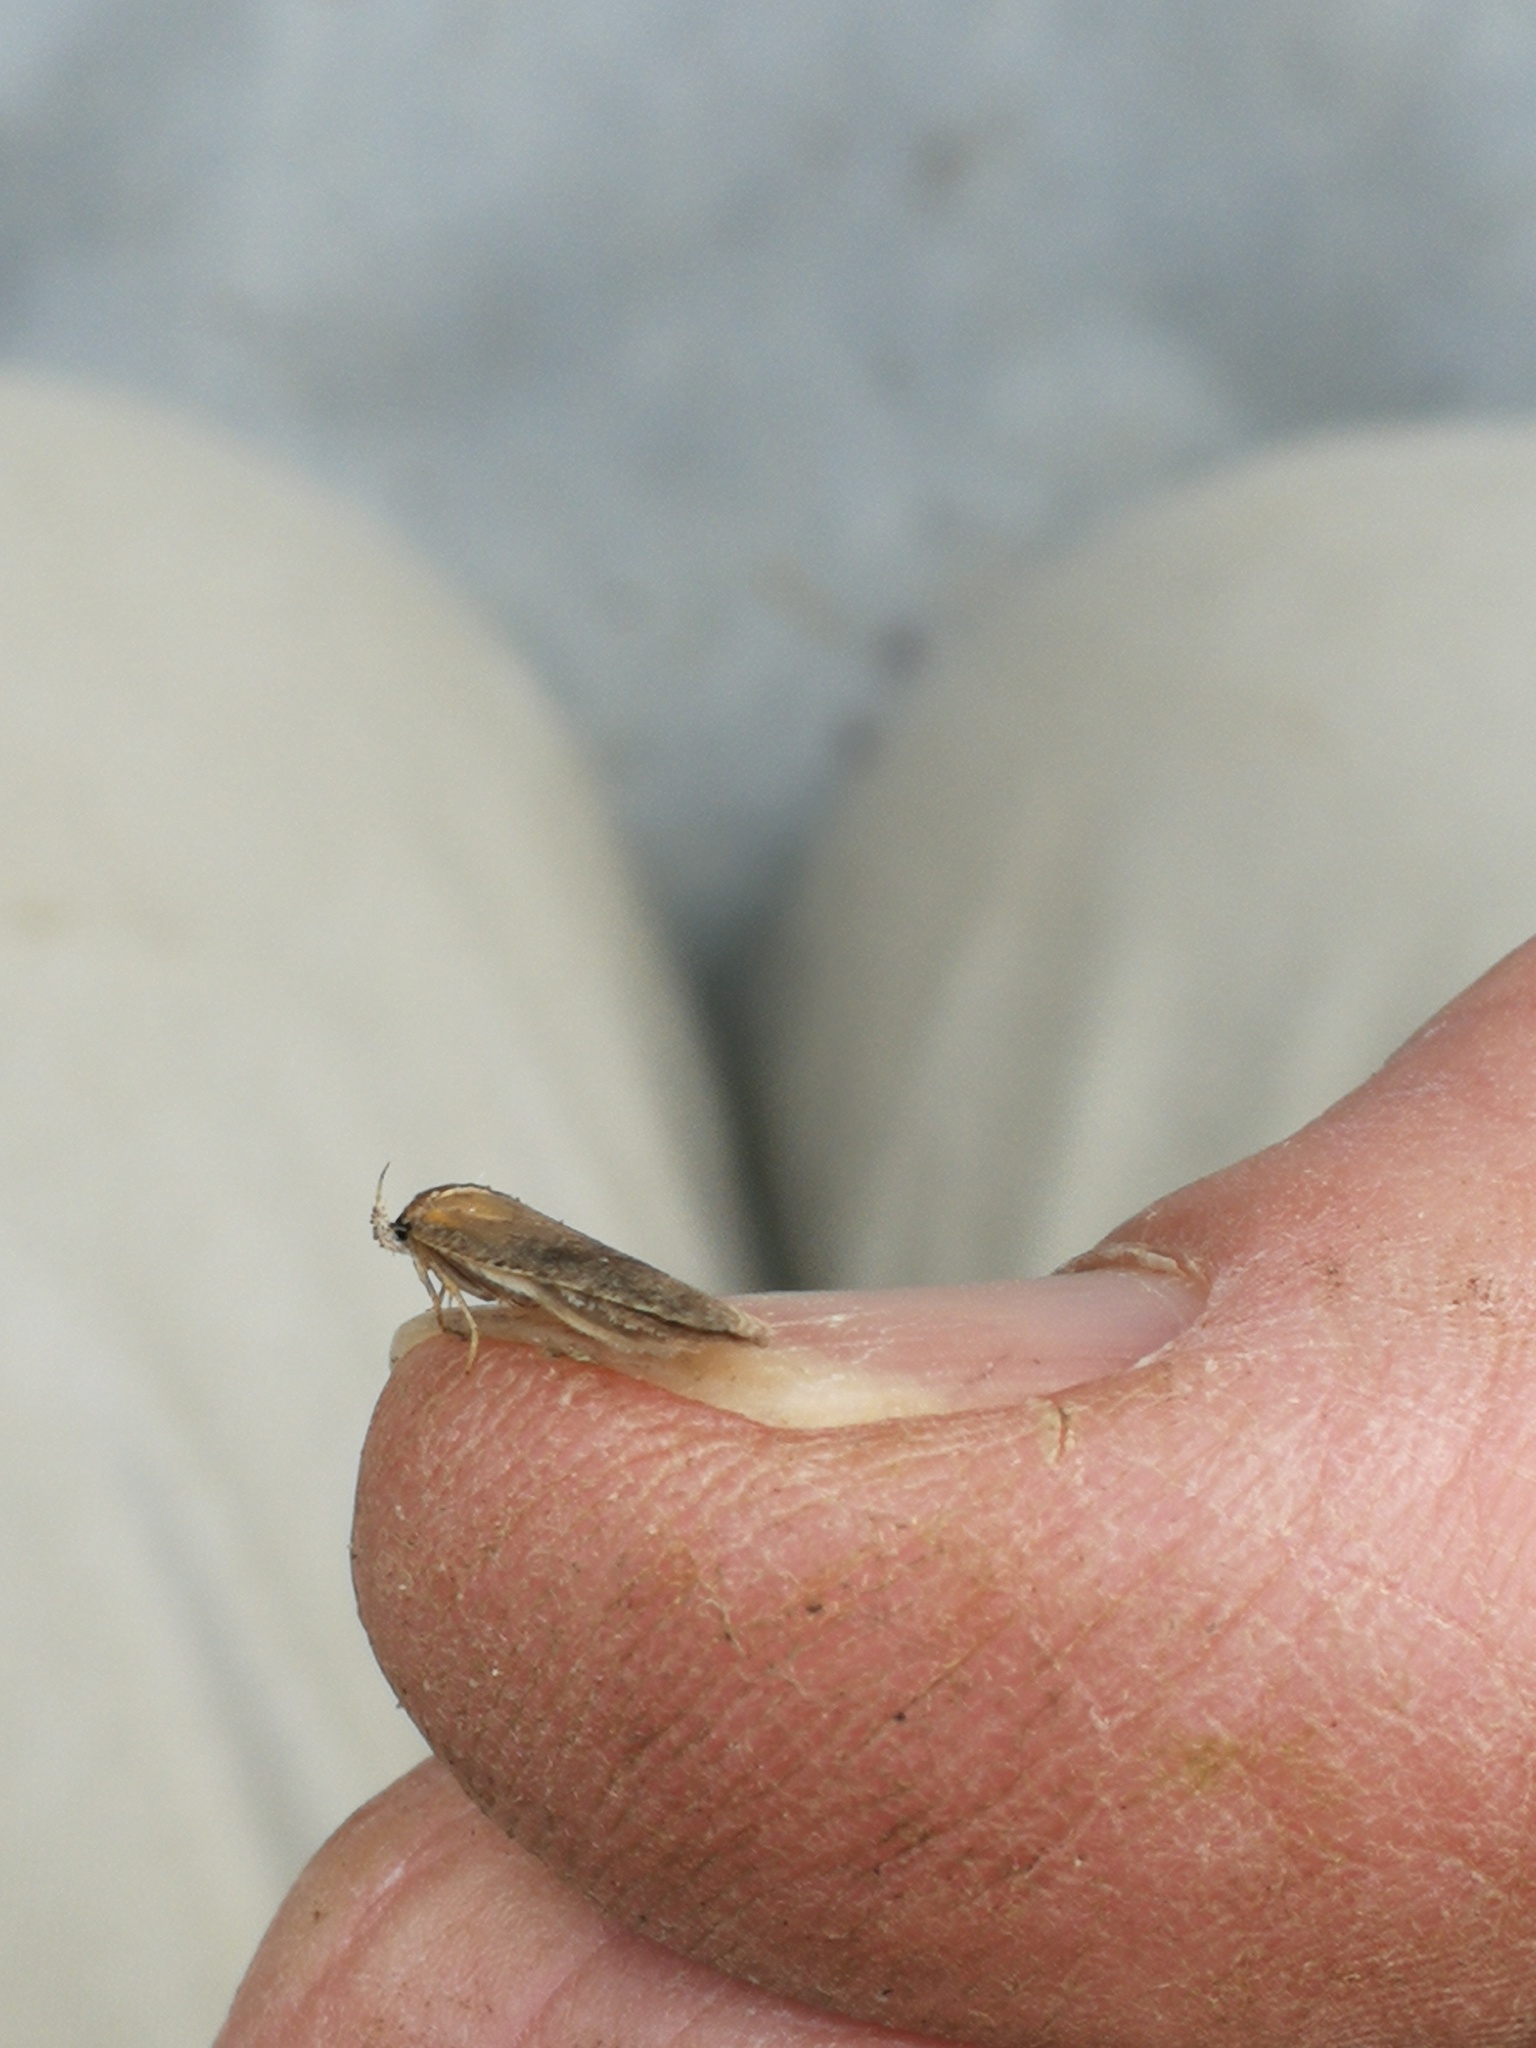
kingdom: Animalia
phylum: Arthropoda
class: Insecta
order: Lepidoptera
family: Depressariidae
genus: Agonopterix
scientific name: Agonopterix assimilella
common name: Dusted flat-body
